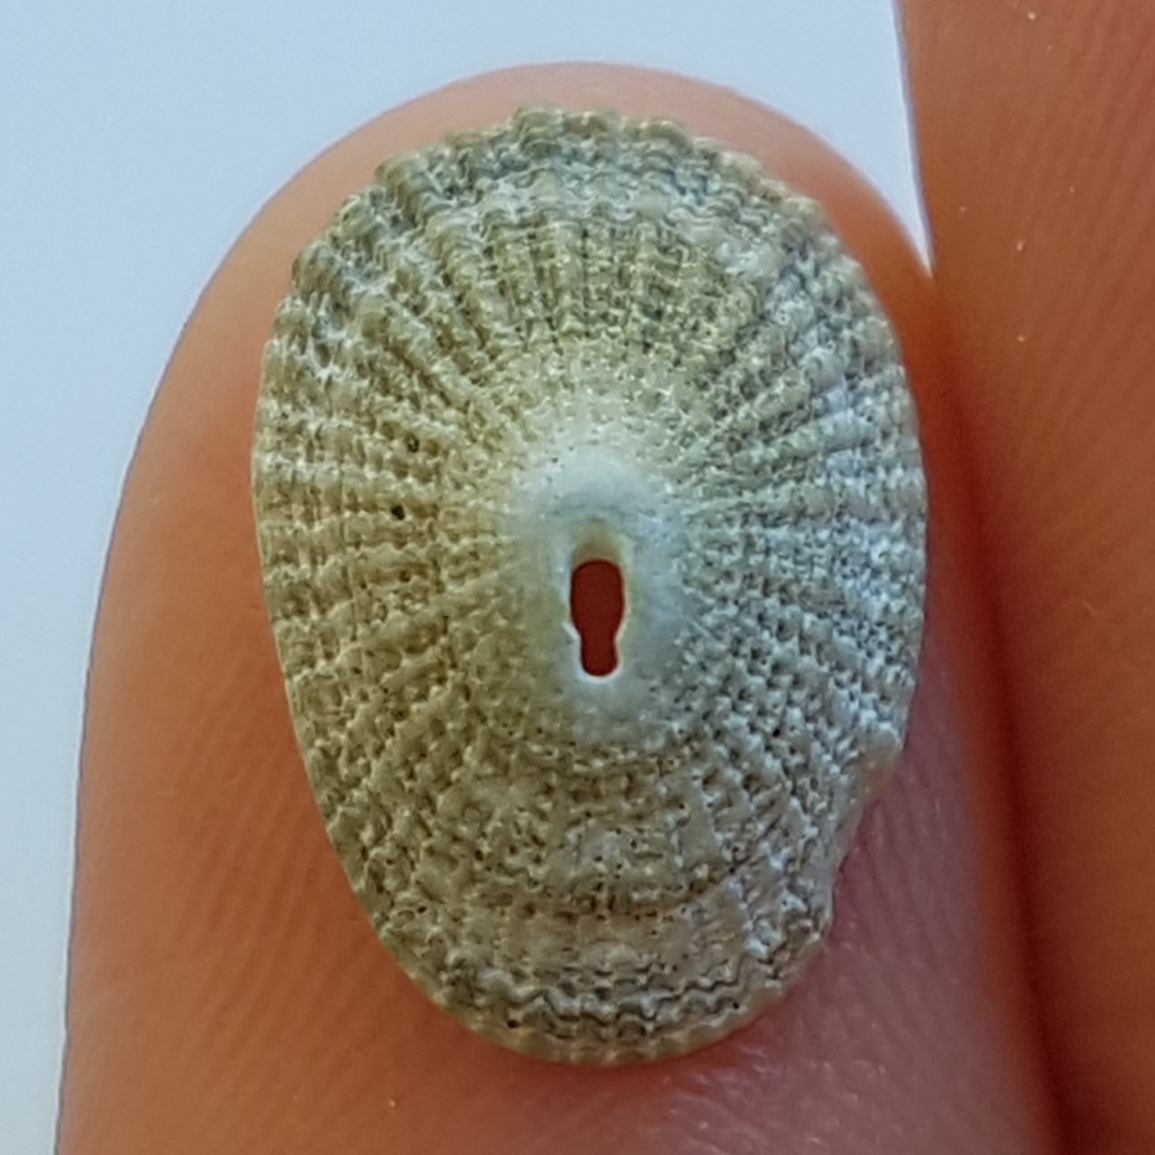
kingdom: Animalia
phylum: Mollusca
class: Gastropoda
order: Lepetellida
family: Fissurellidae
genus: Diodora
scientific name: Diodora gibberula
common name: Humped keyhole limpet
